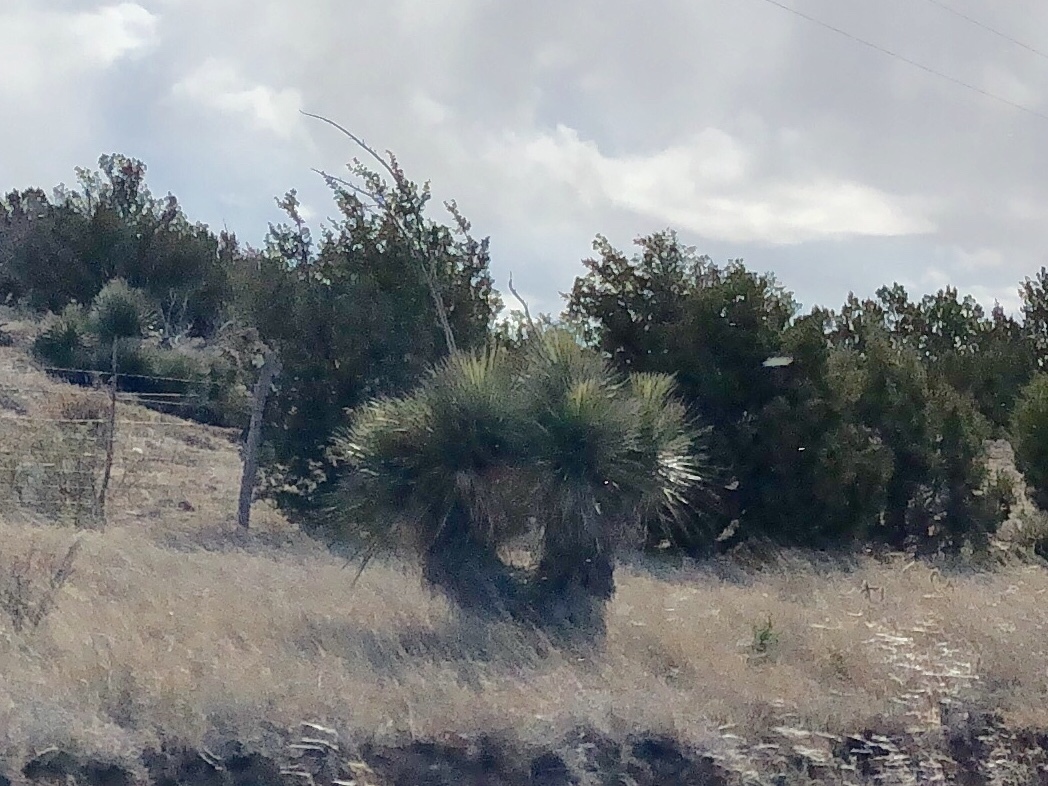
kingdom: Plantae
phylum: Tracheophyta
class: Liliopsida
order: Asparagales
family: Asparagaceae
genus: Yucca
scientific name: Yucca elata
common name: Palmella
